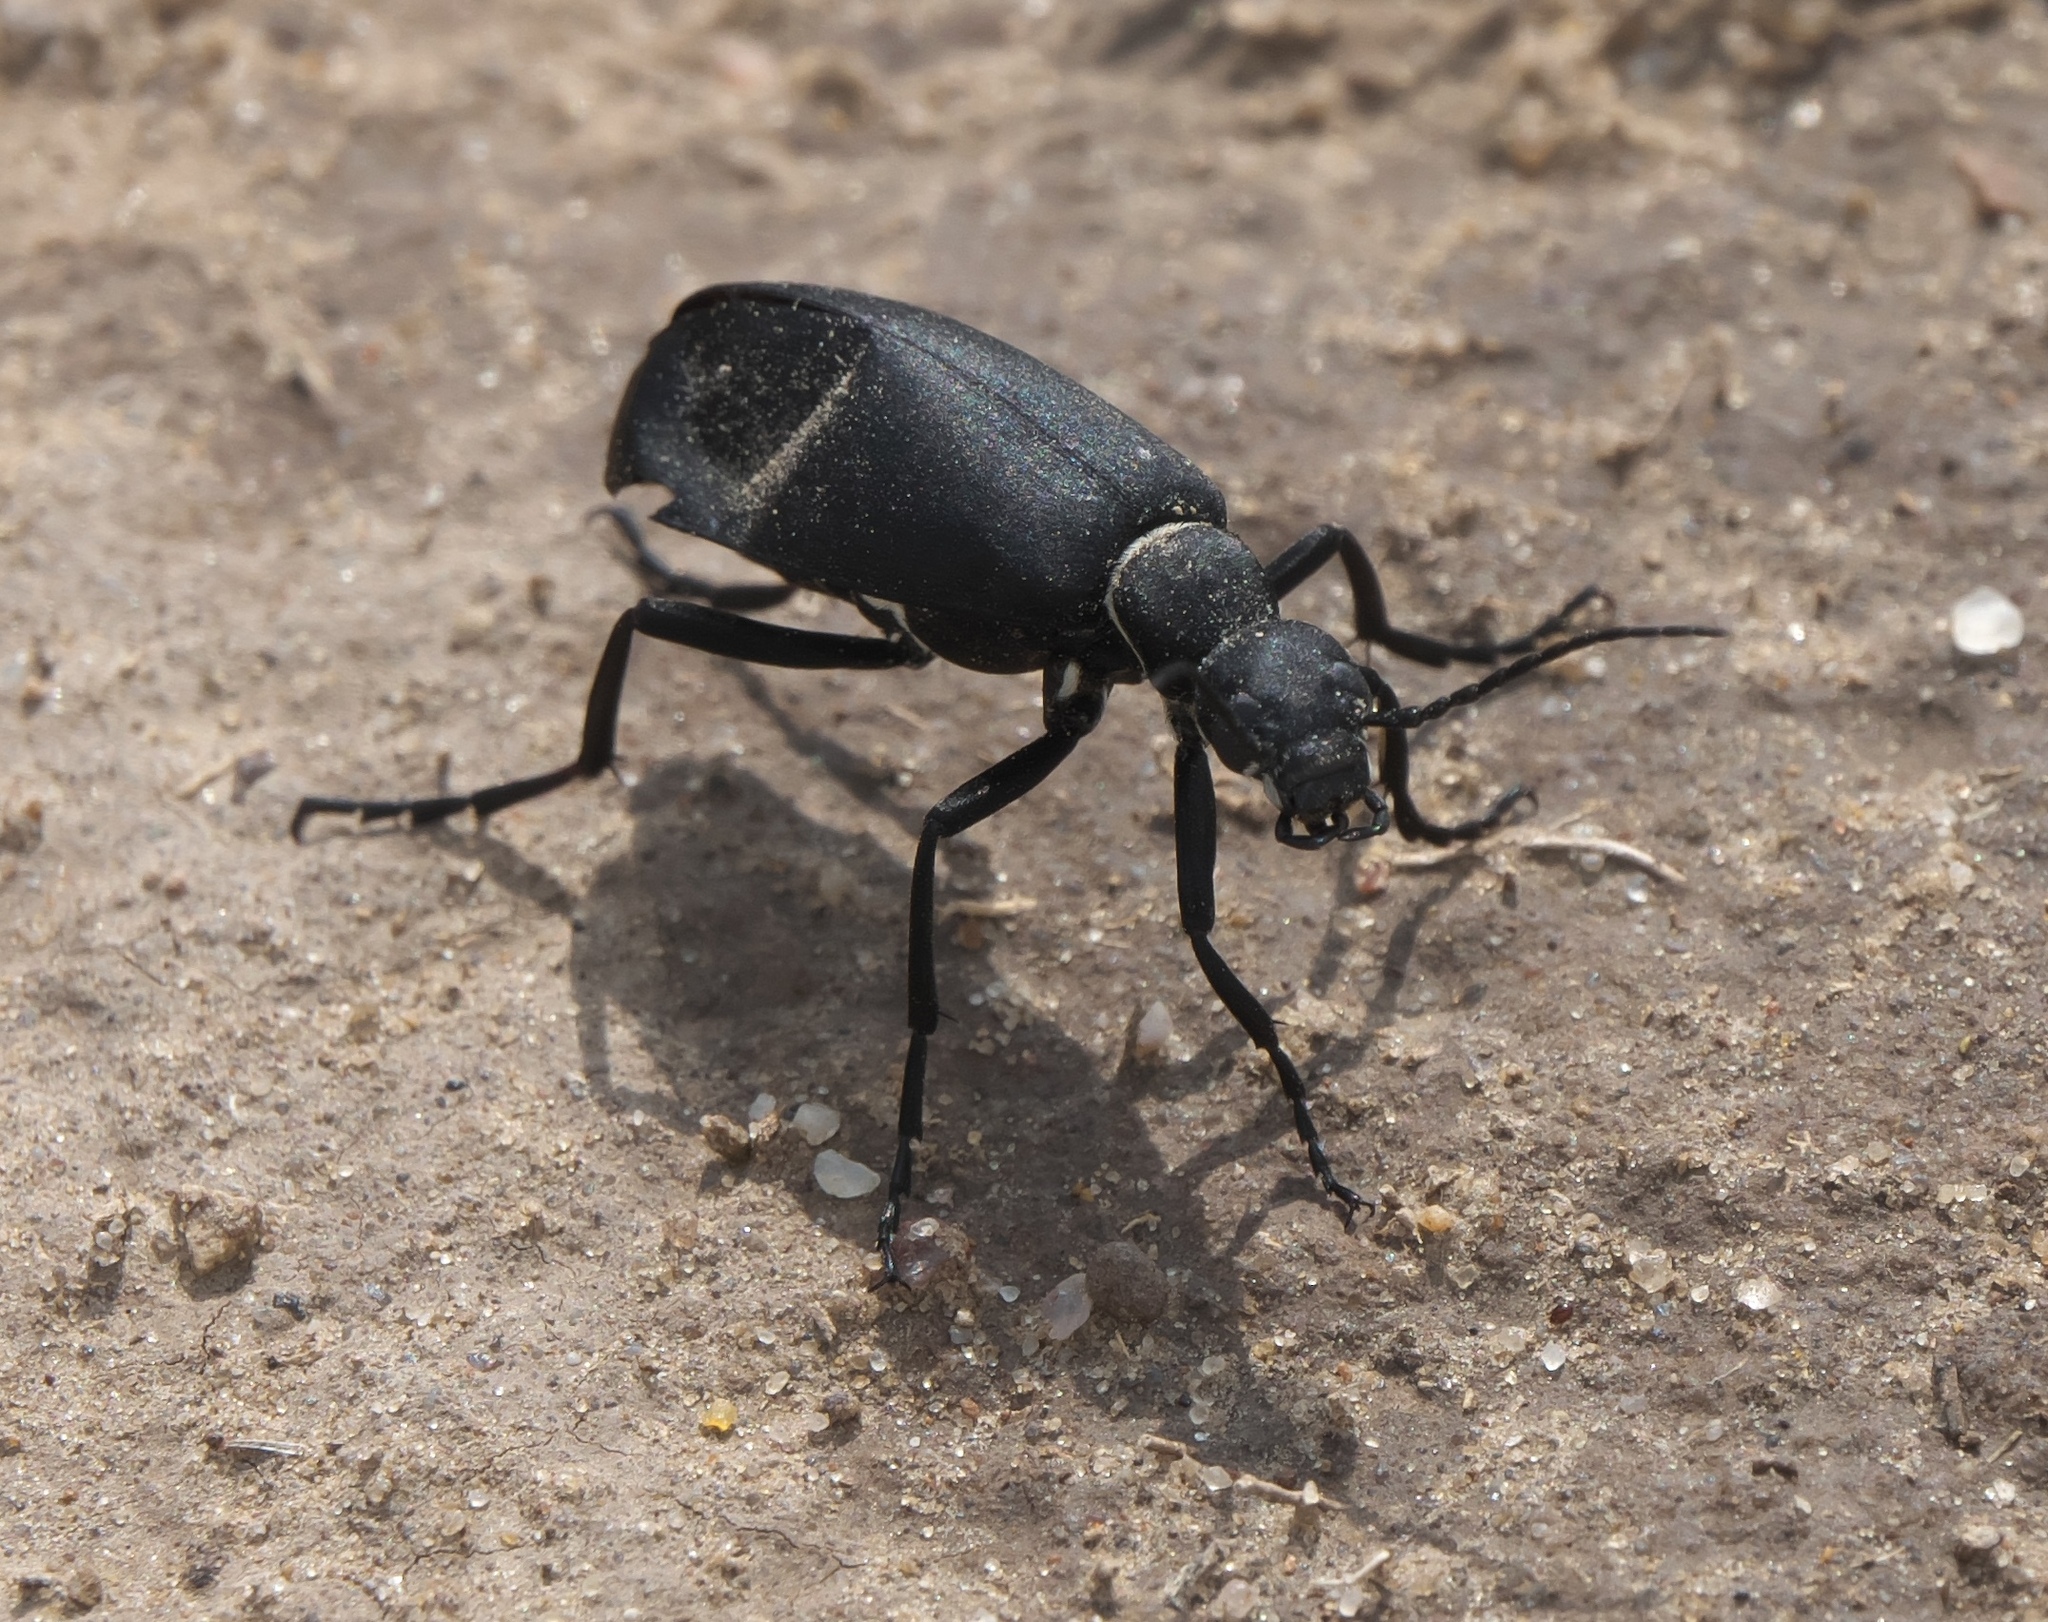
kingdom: Animalia
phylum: Arthropoda
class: Insecta
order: Coleoptera
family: Meloidae
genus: Epicauta
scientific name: Epicauta segmenta
